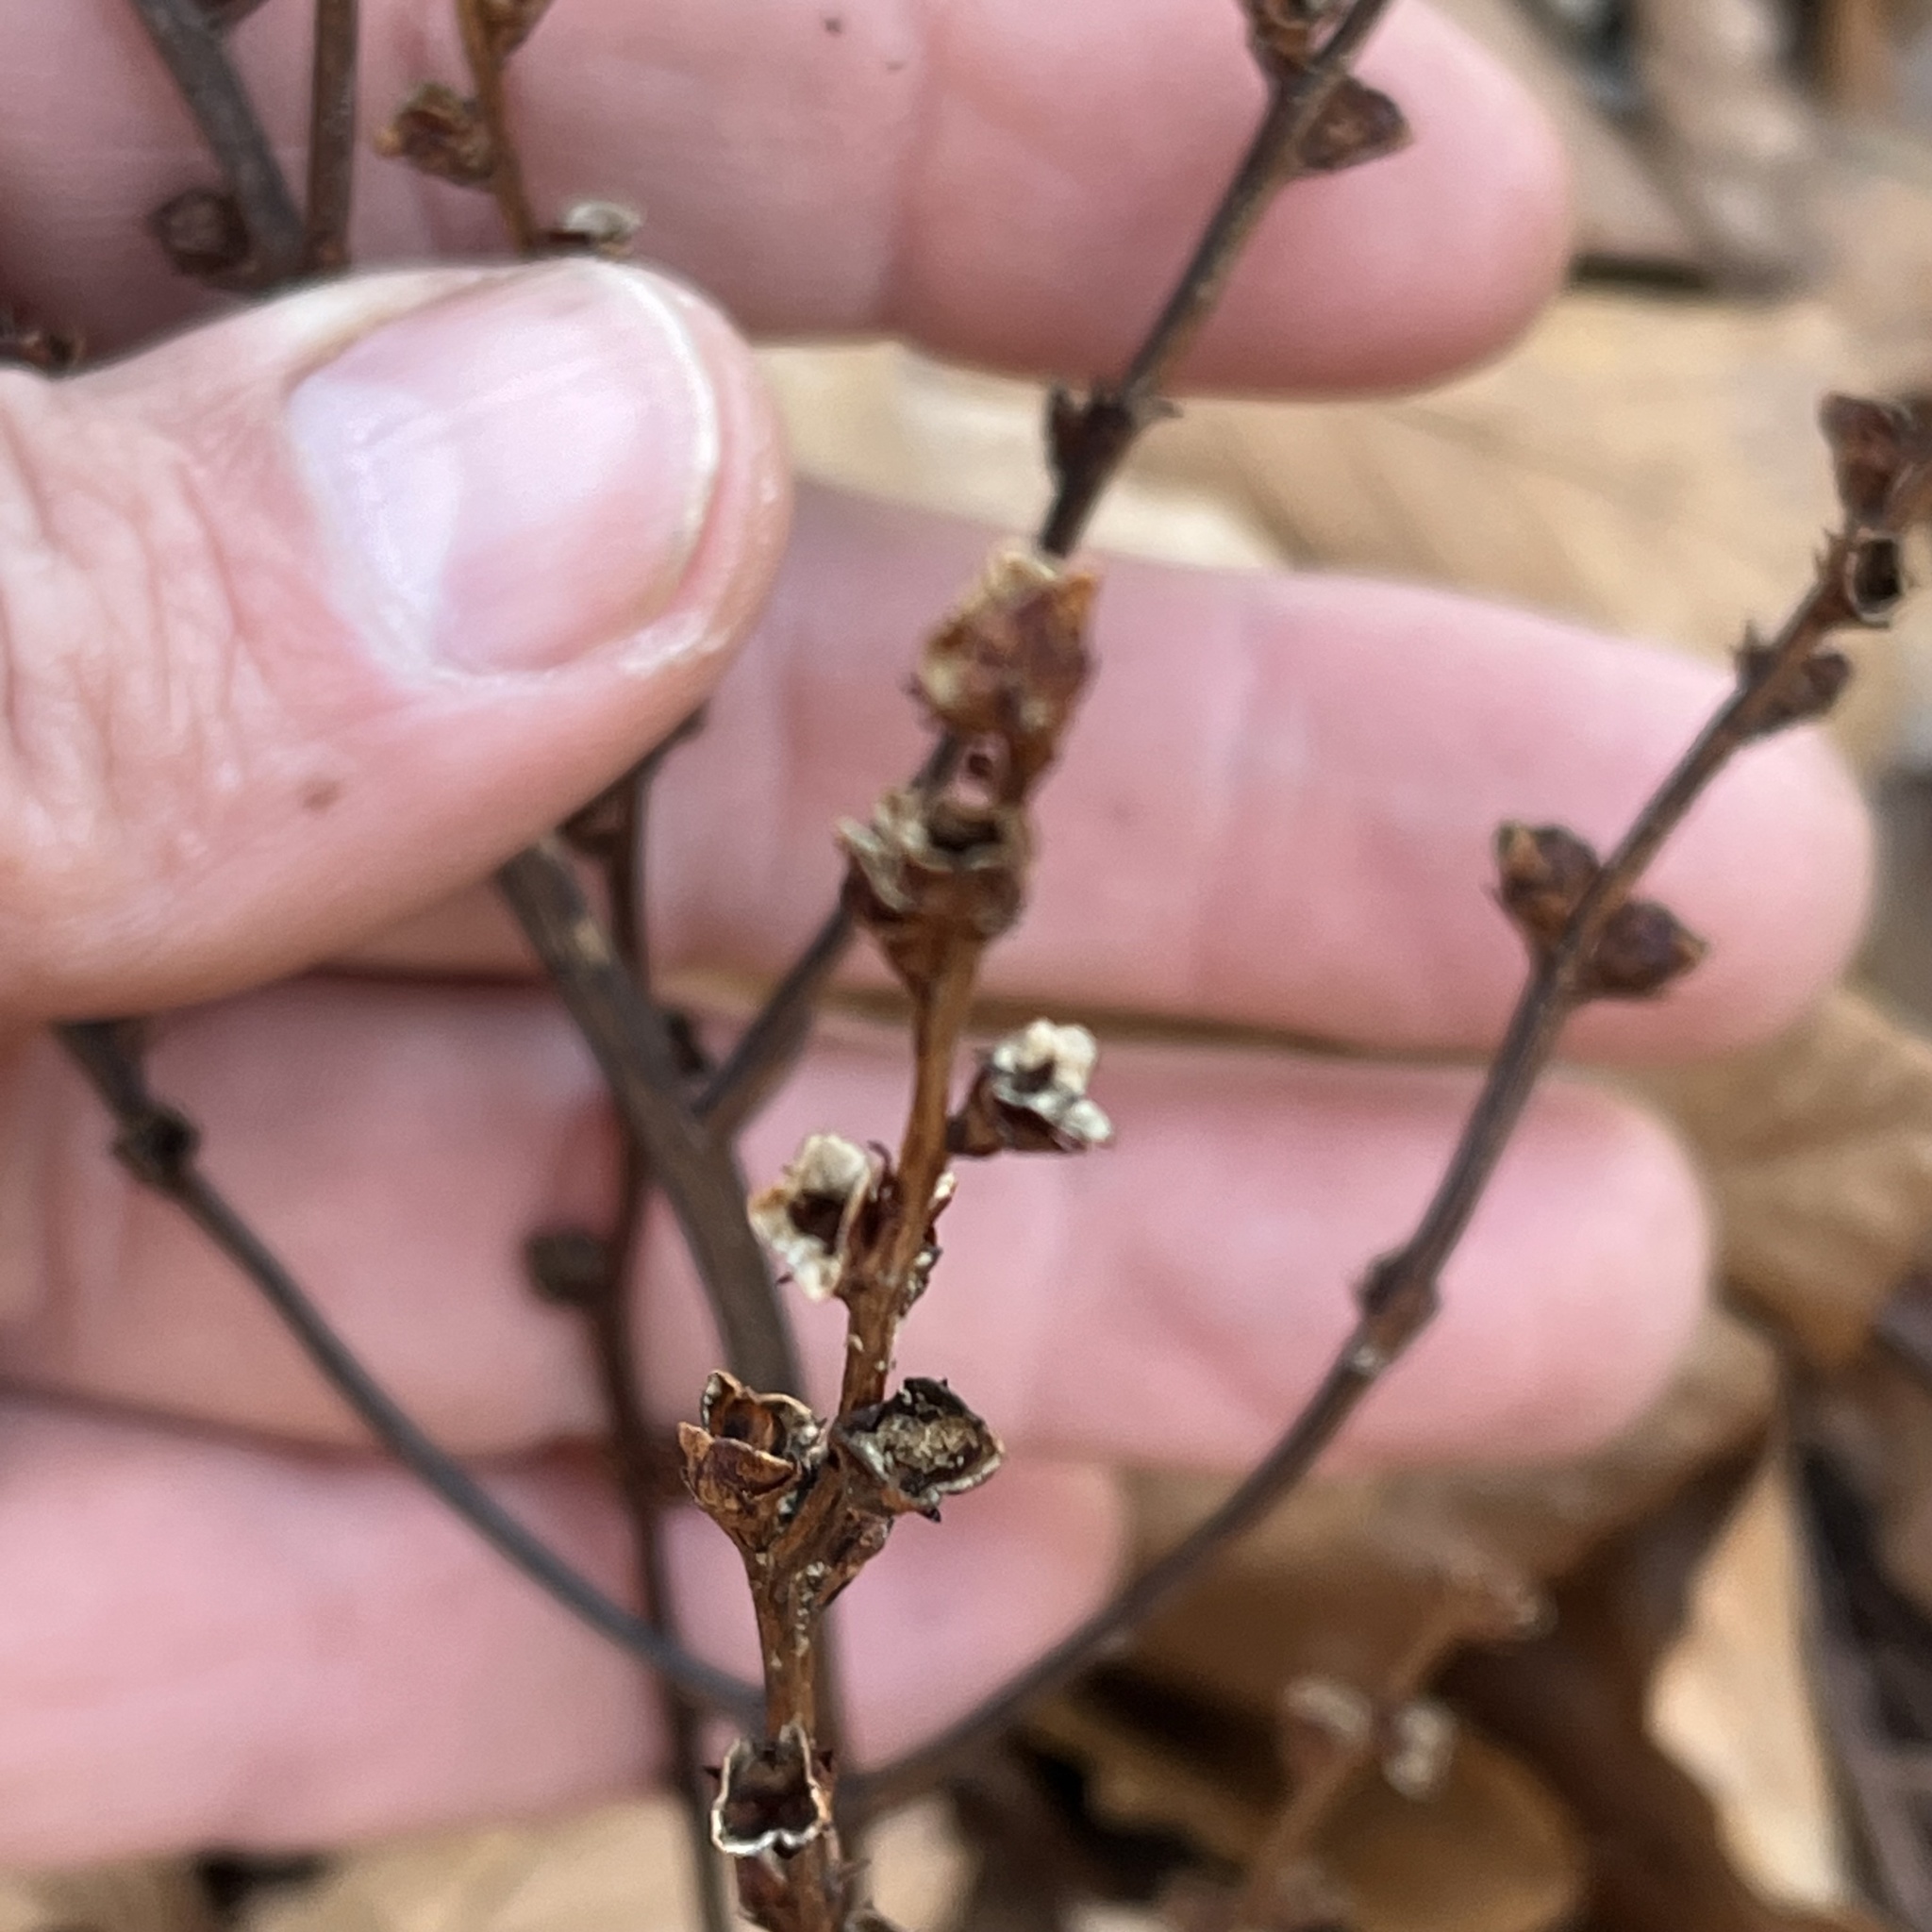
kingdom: Plantae
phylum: Tracheophyta
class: Magnoliopsida
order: Lamiales
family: Orobanchaceae
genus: Epifagus
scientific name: Epifagus virginiana
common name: Beechdrops
